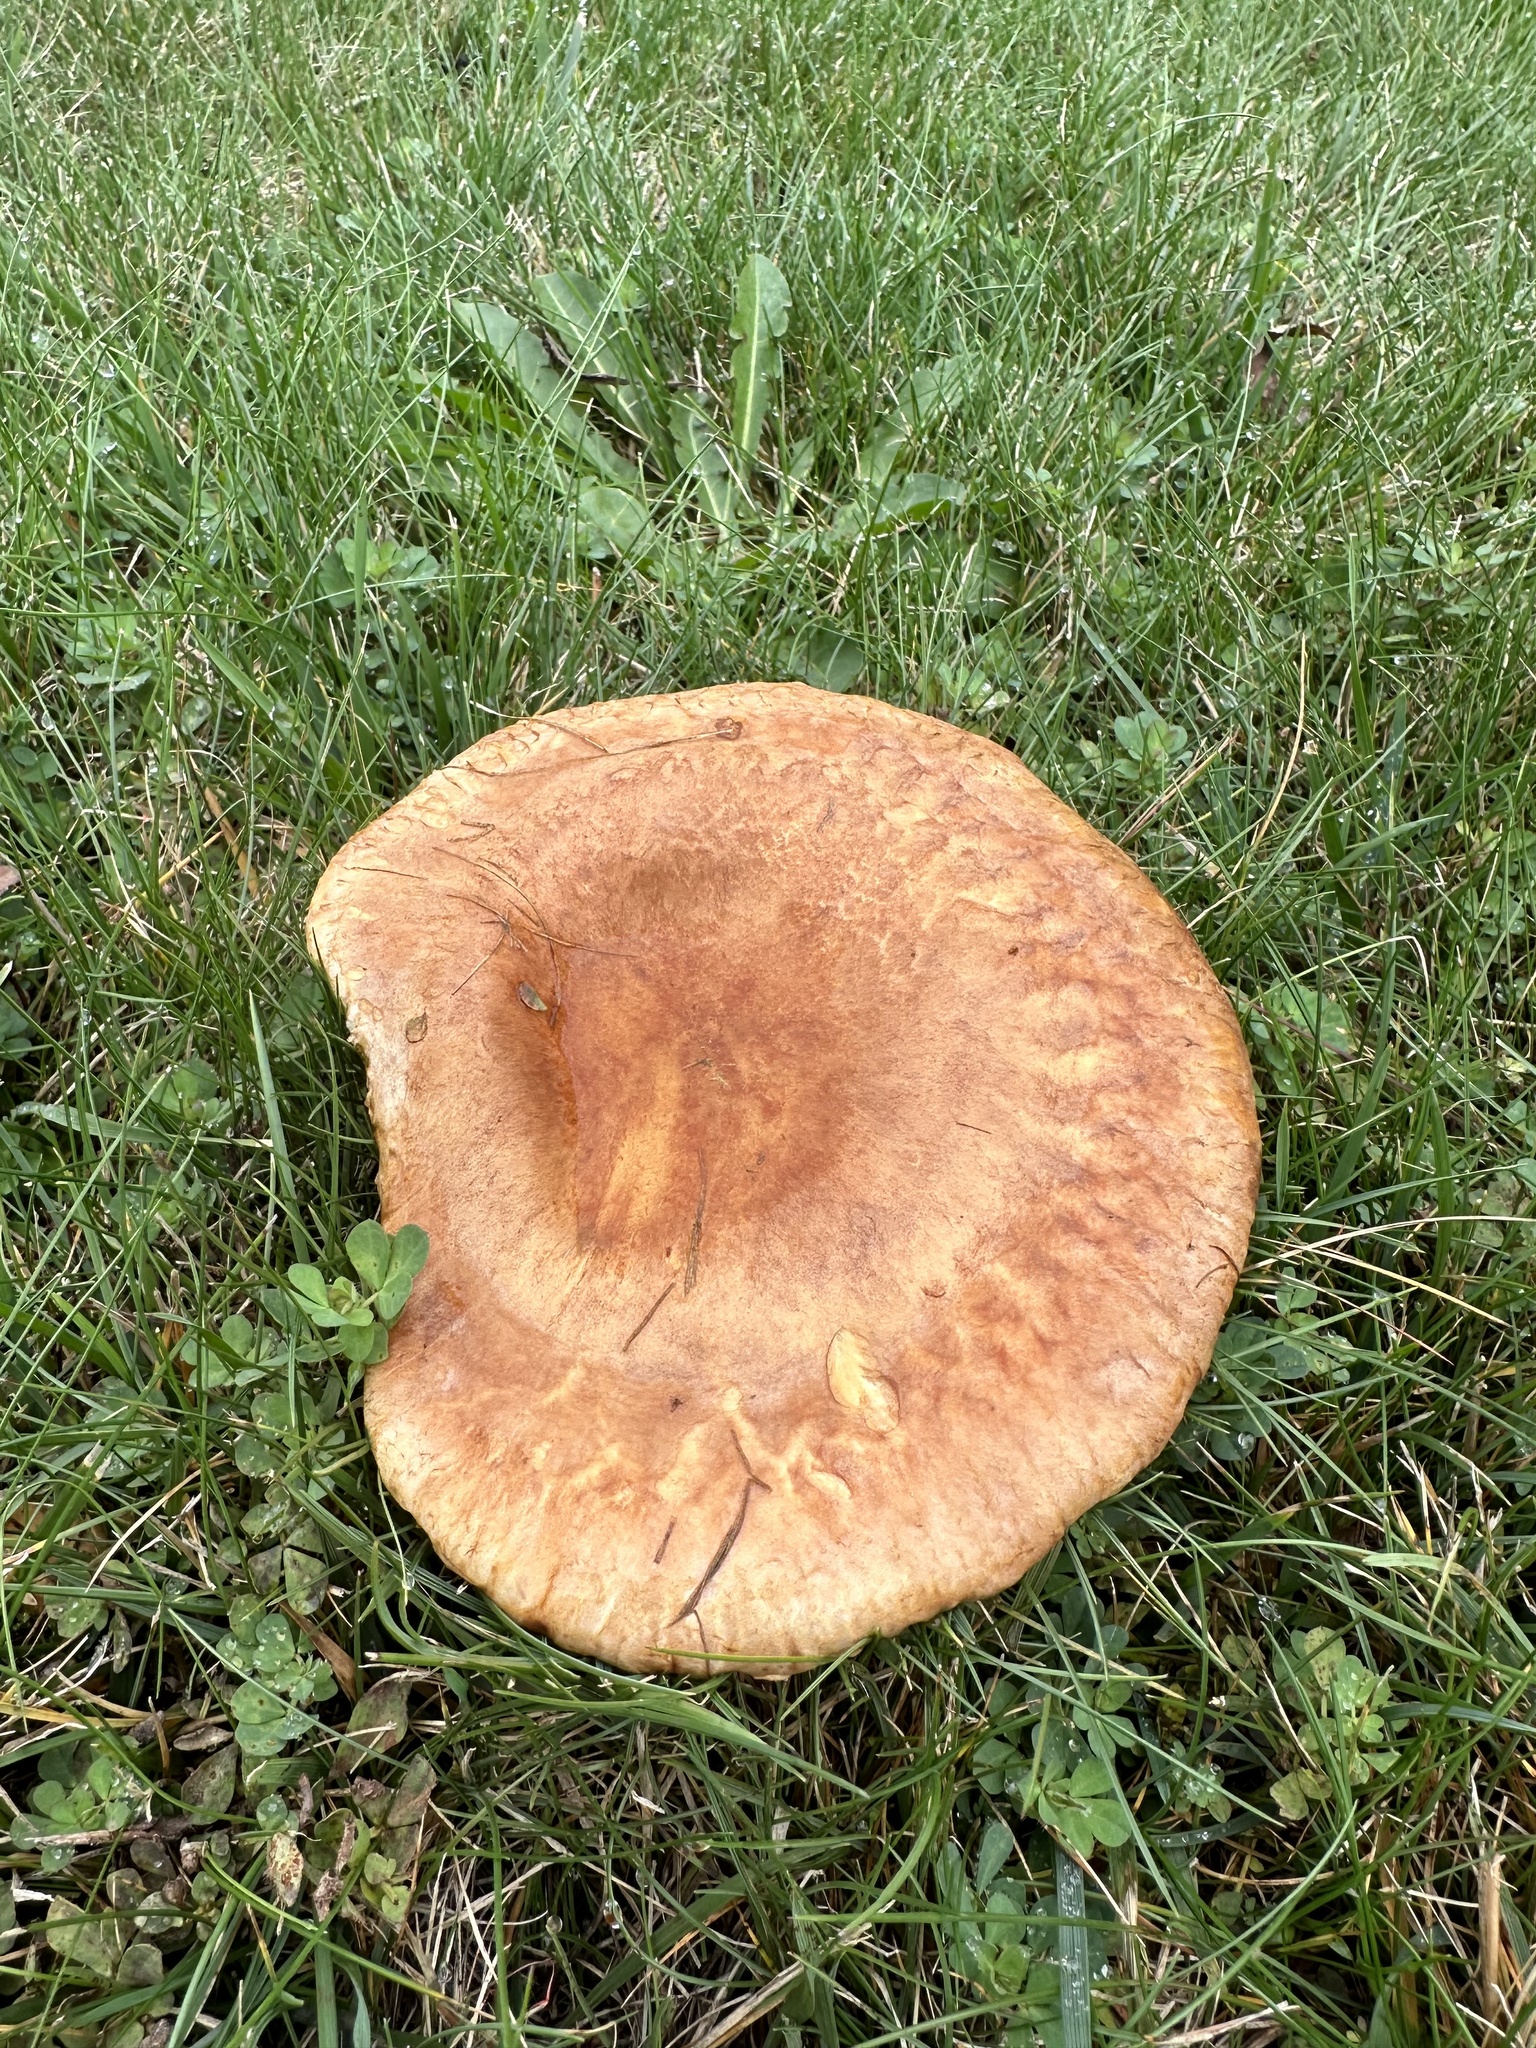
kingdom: Fungi
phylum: Basidiomycota
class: Agaricomycetes
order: Russulales
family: Russulaceae
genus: Lactarius
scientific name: Lactarius quieticolor
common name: Carrot milkcap
